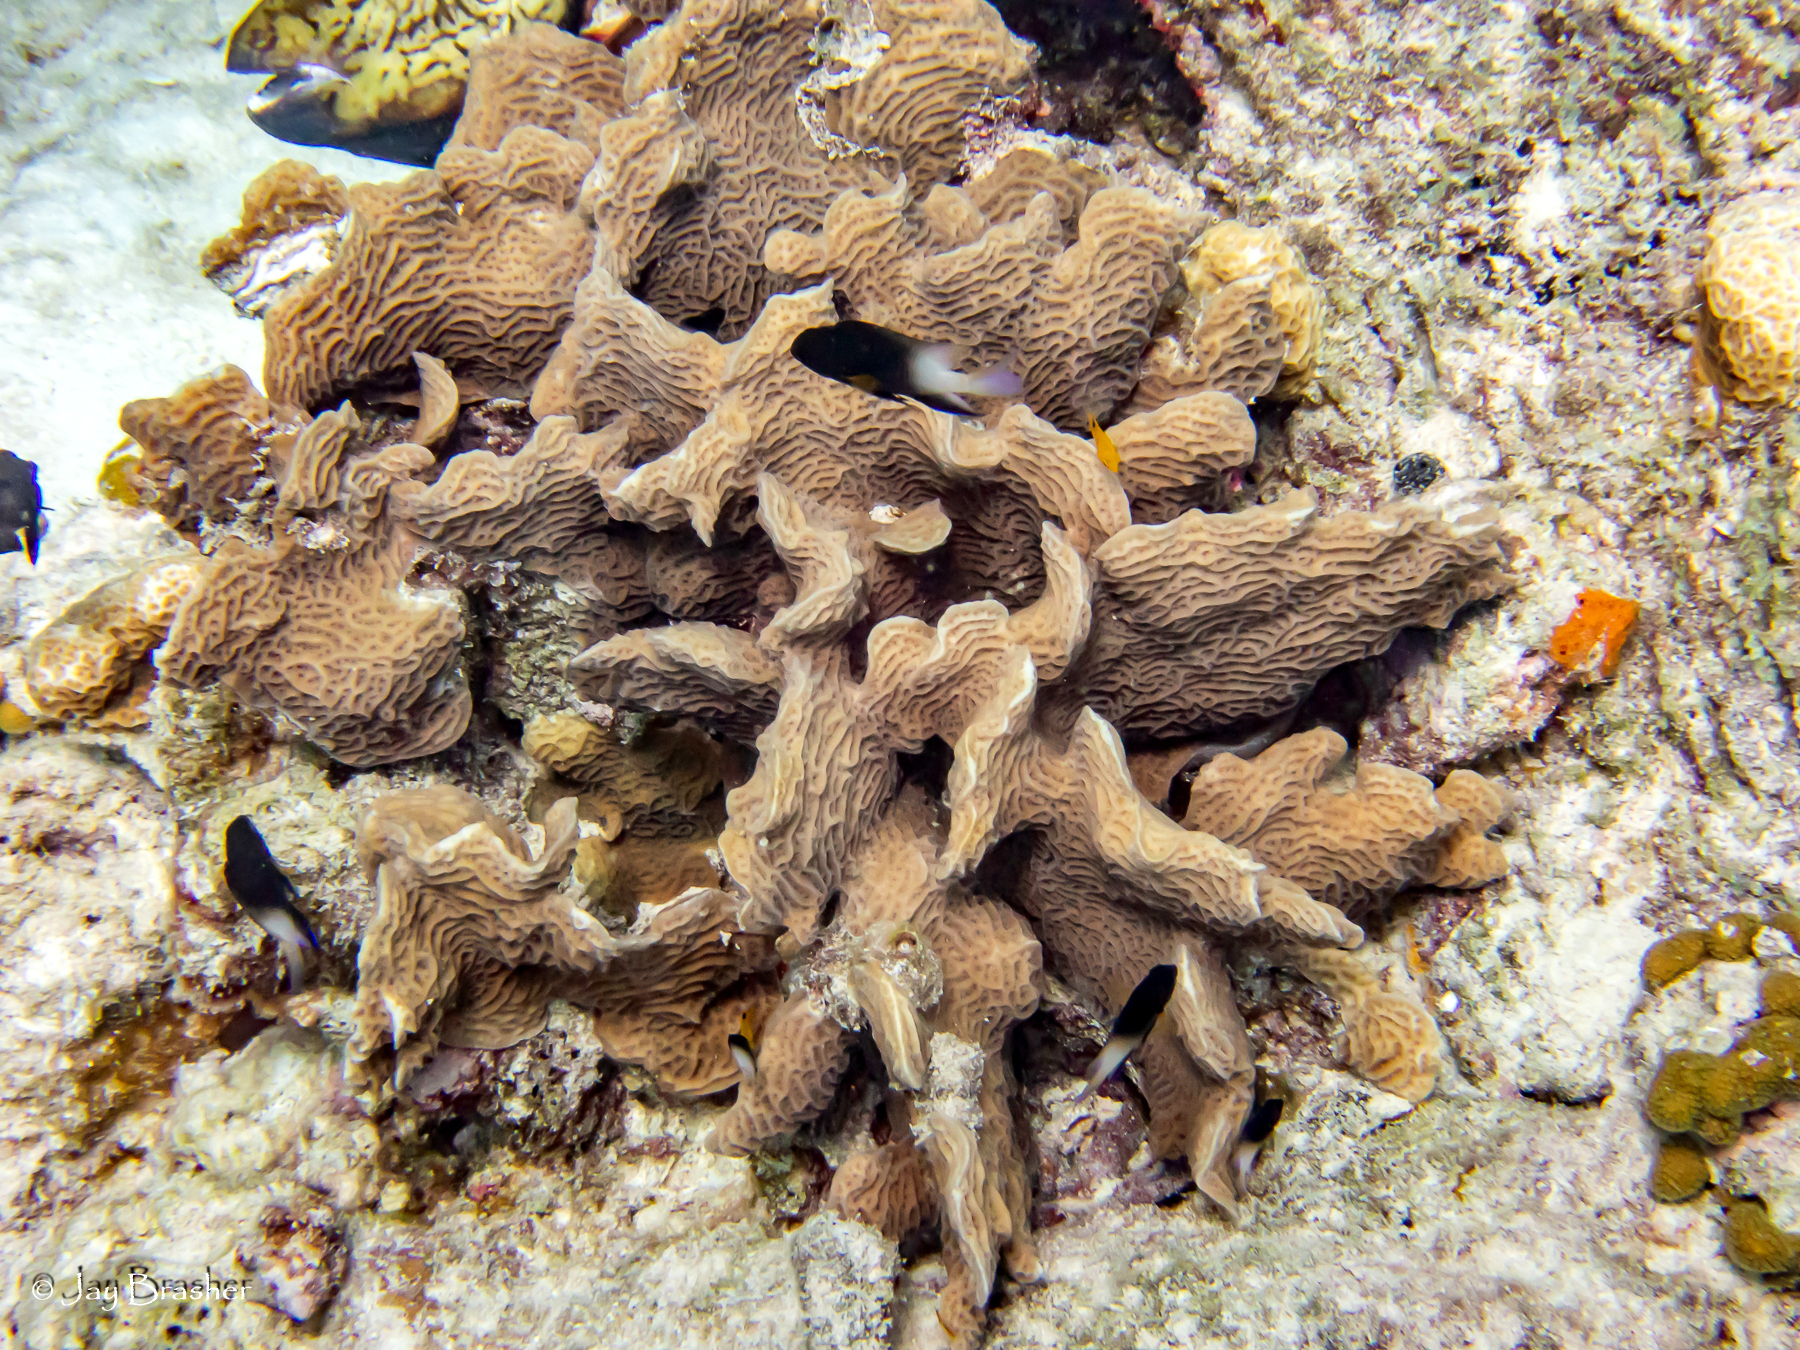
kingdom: Animalia
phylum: Chordata
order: Perciformes
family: Pomacentridae
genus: Stegastes
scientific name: Stegastes partitus
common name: Bicolor damselfish
